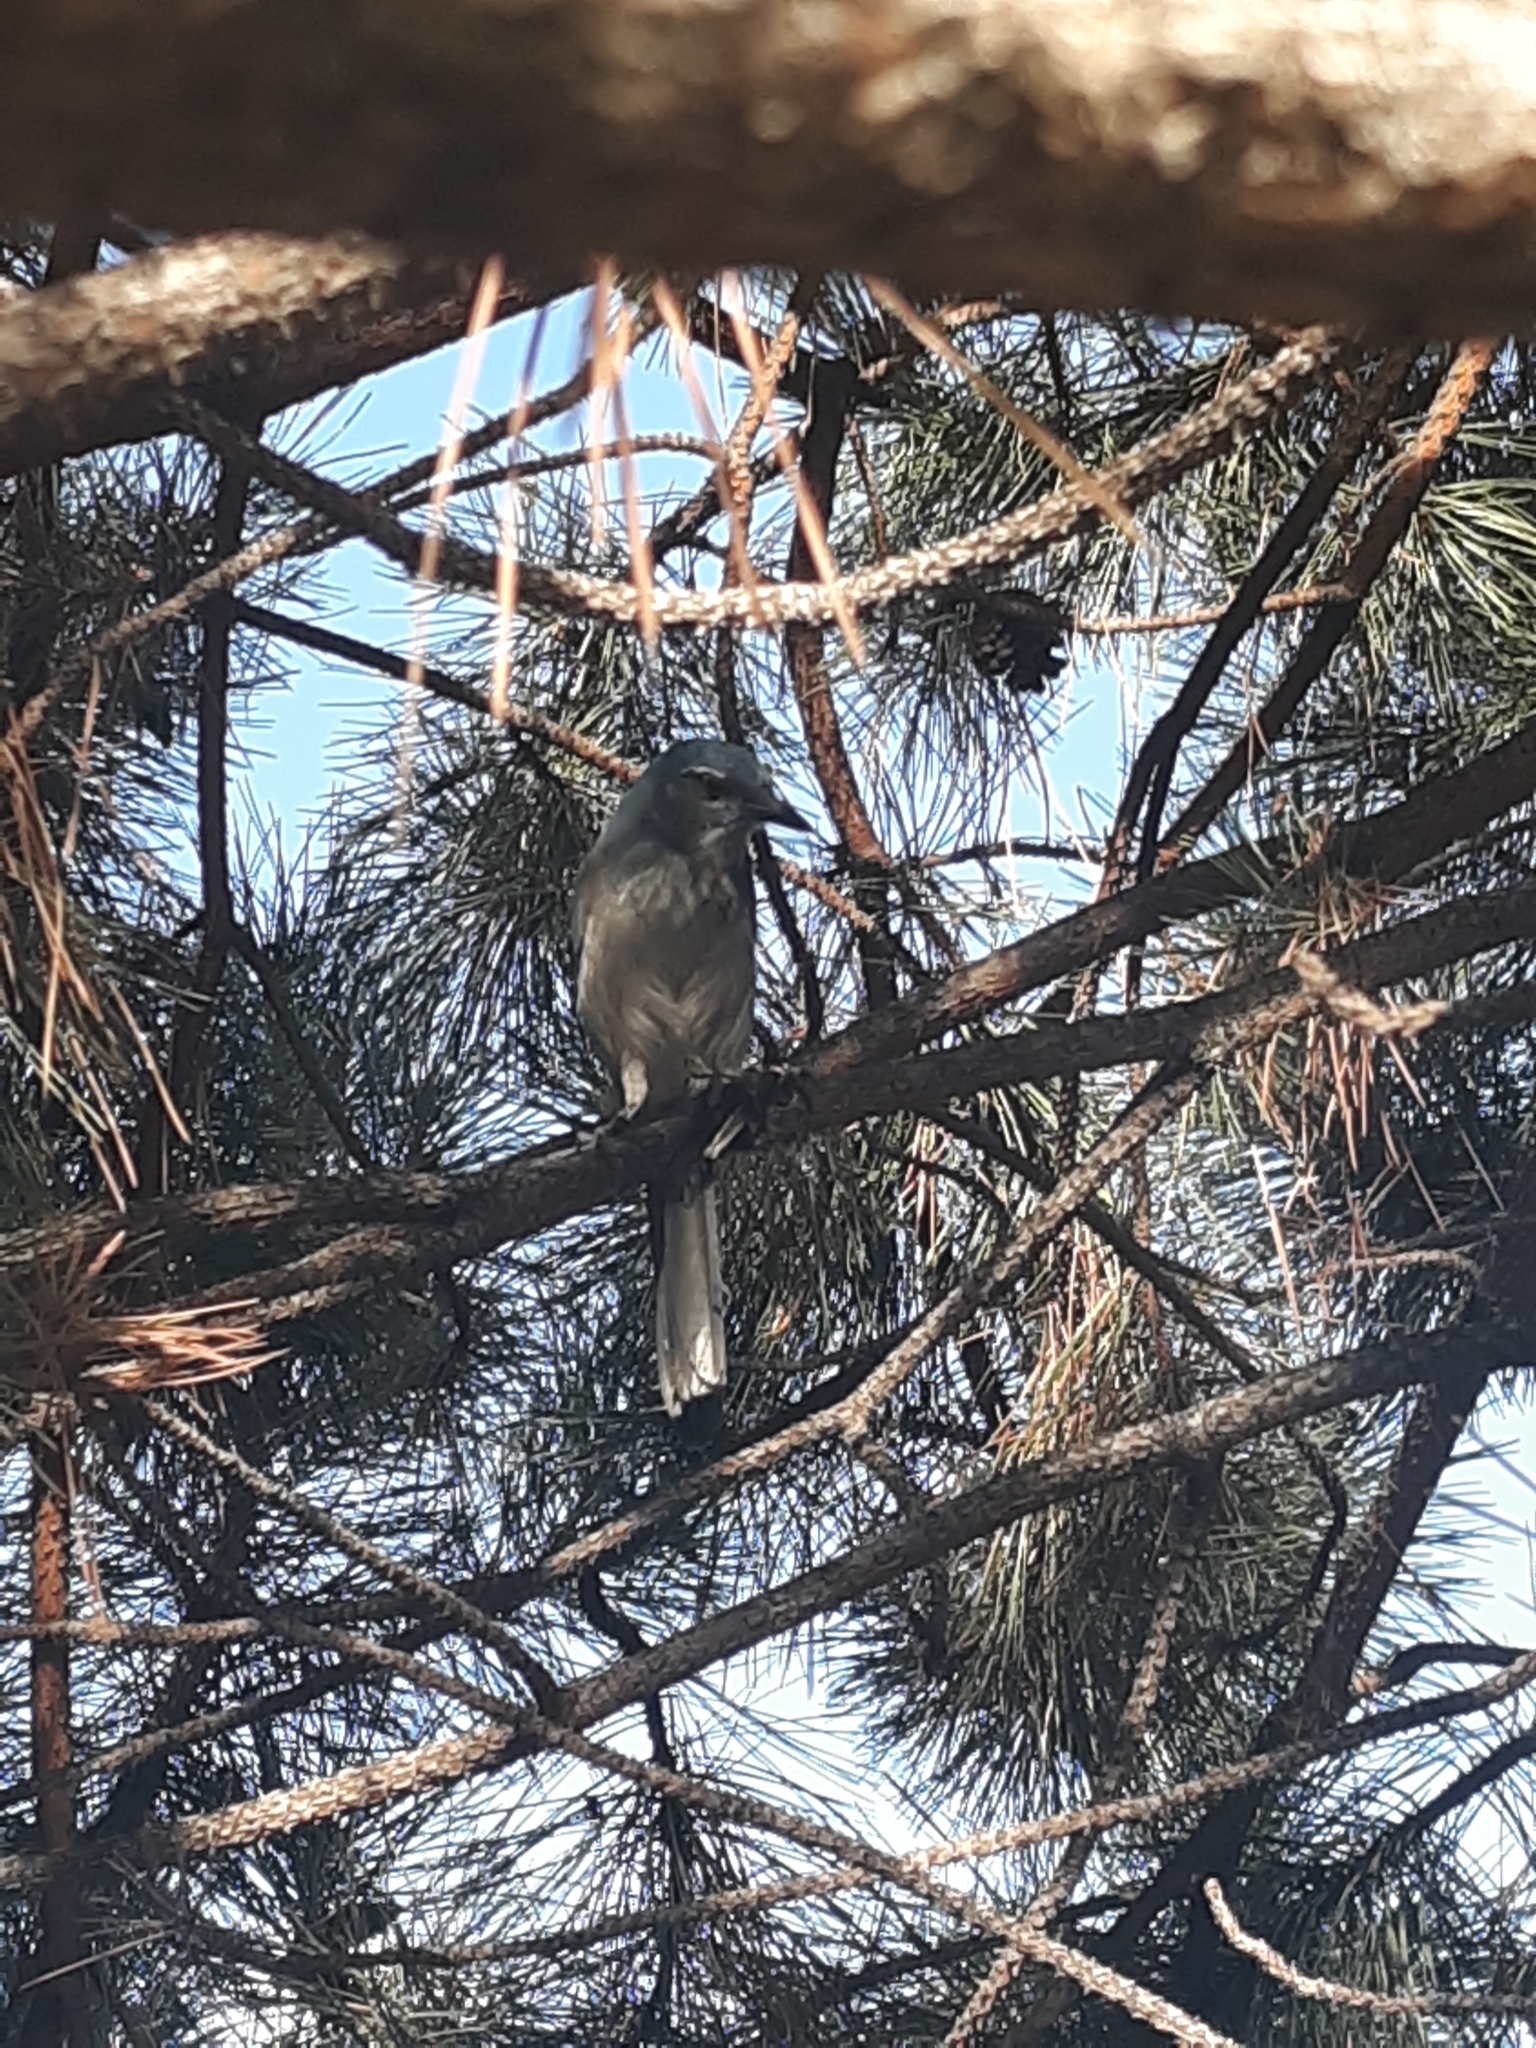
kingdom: Animalia
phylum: Chordata
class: Aves
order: Passeriformes
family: Corvidae
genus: Aphelocoma
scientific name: Aphelocoma woodhouseii
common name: Woodhouse's scrub-jay
